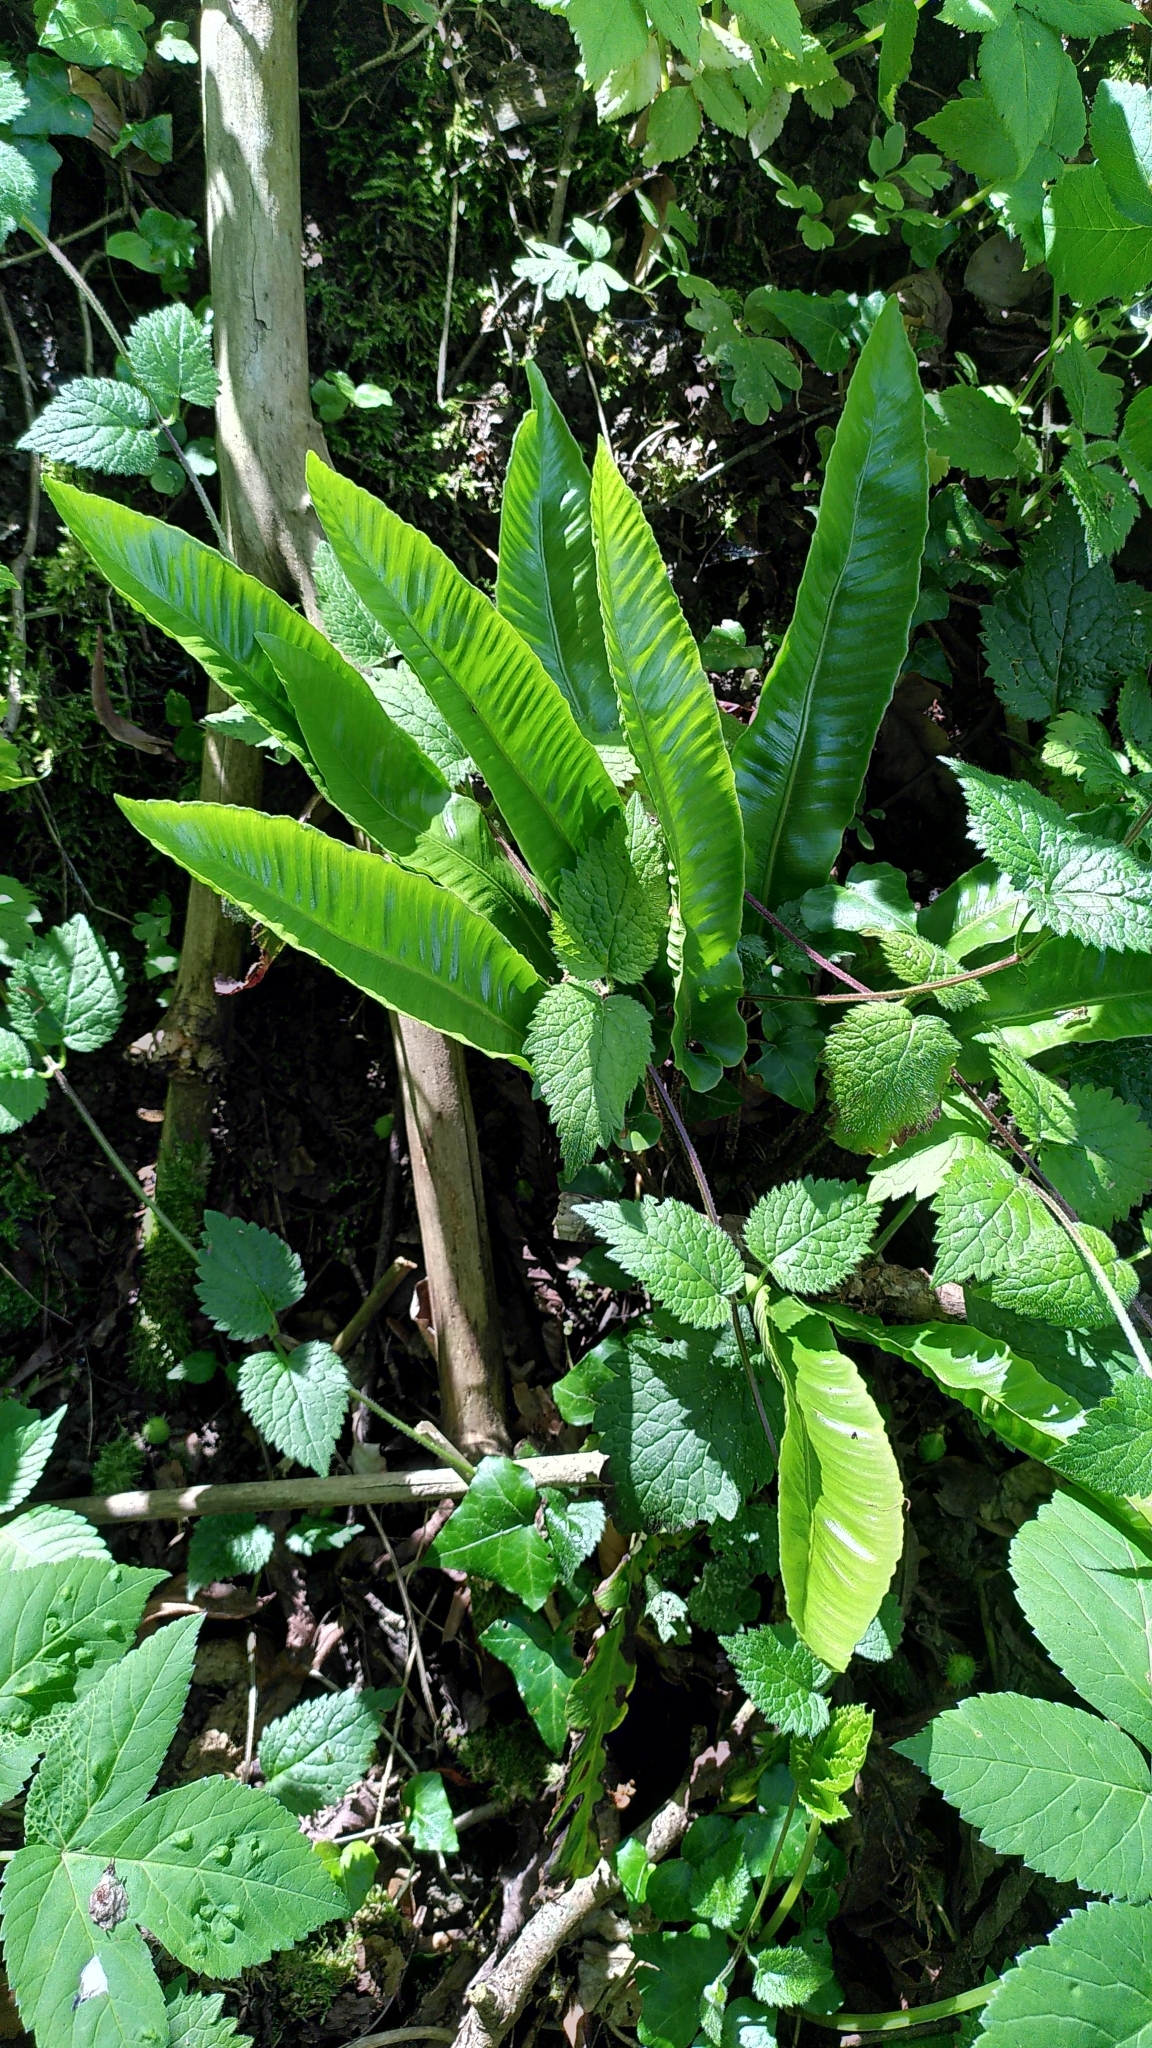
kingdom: Plantae
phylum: Tracheophyta
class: Polypodiopsida
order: Polypodiales
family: Aspleniaceae
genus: Asplenium
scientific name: Asplenium scolopendrium
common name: Hart's-tongue fern
